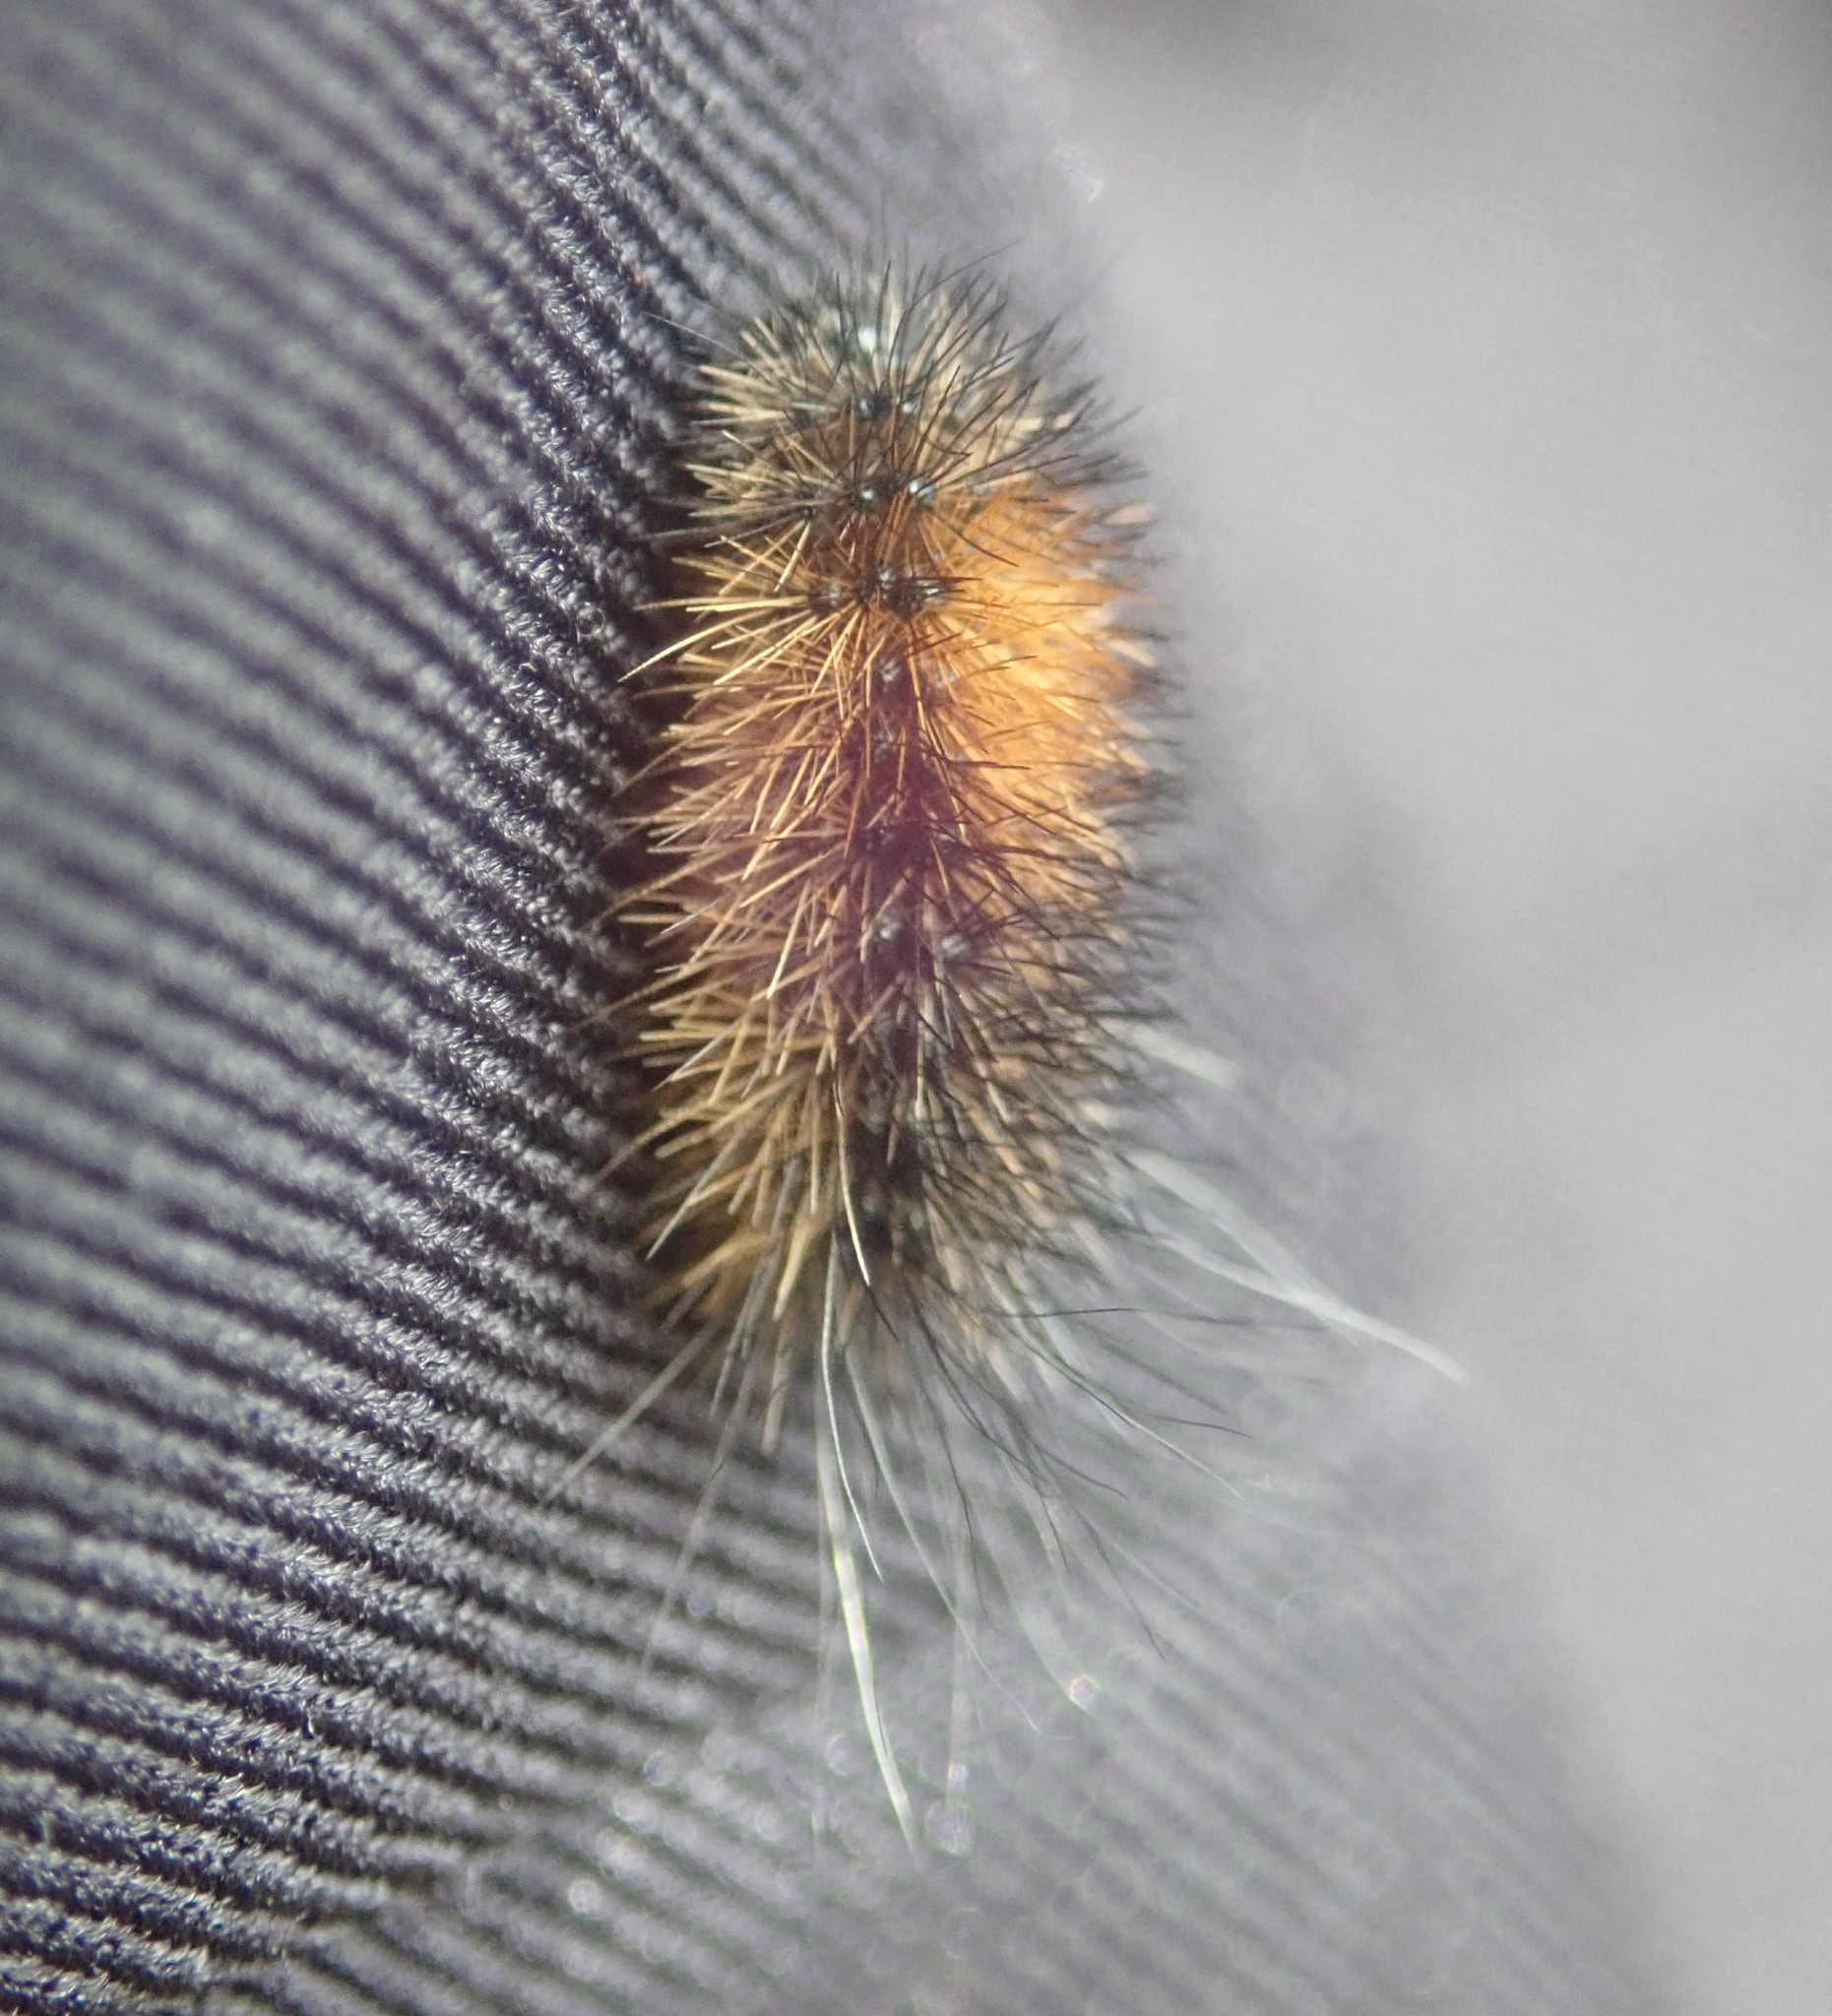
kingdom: Animalia
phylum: Arthropoda
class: Insecta
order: Lepidoptera
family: Erebidae
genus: Arctia
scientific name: Arctia caja
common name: Garden tiger
